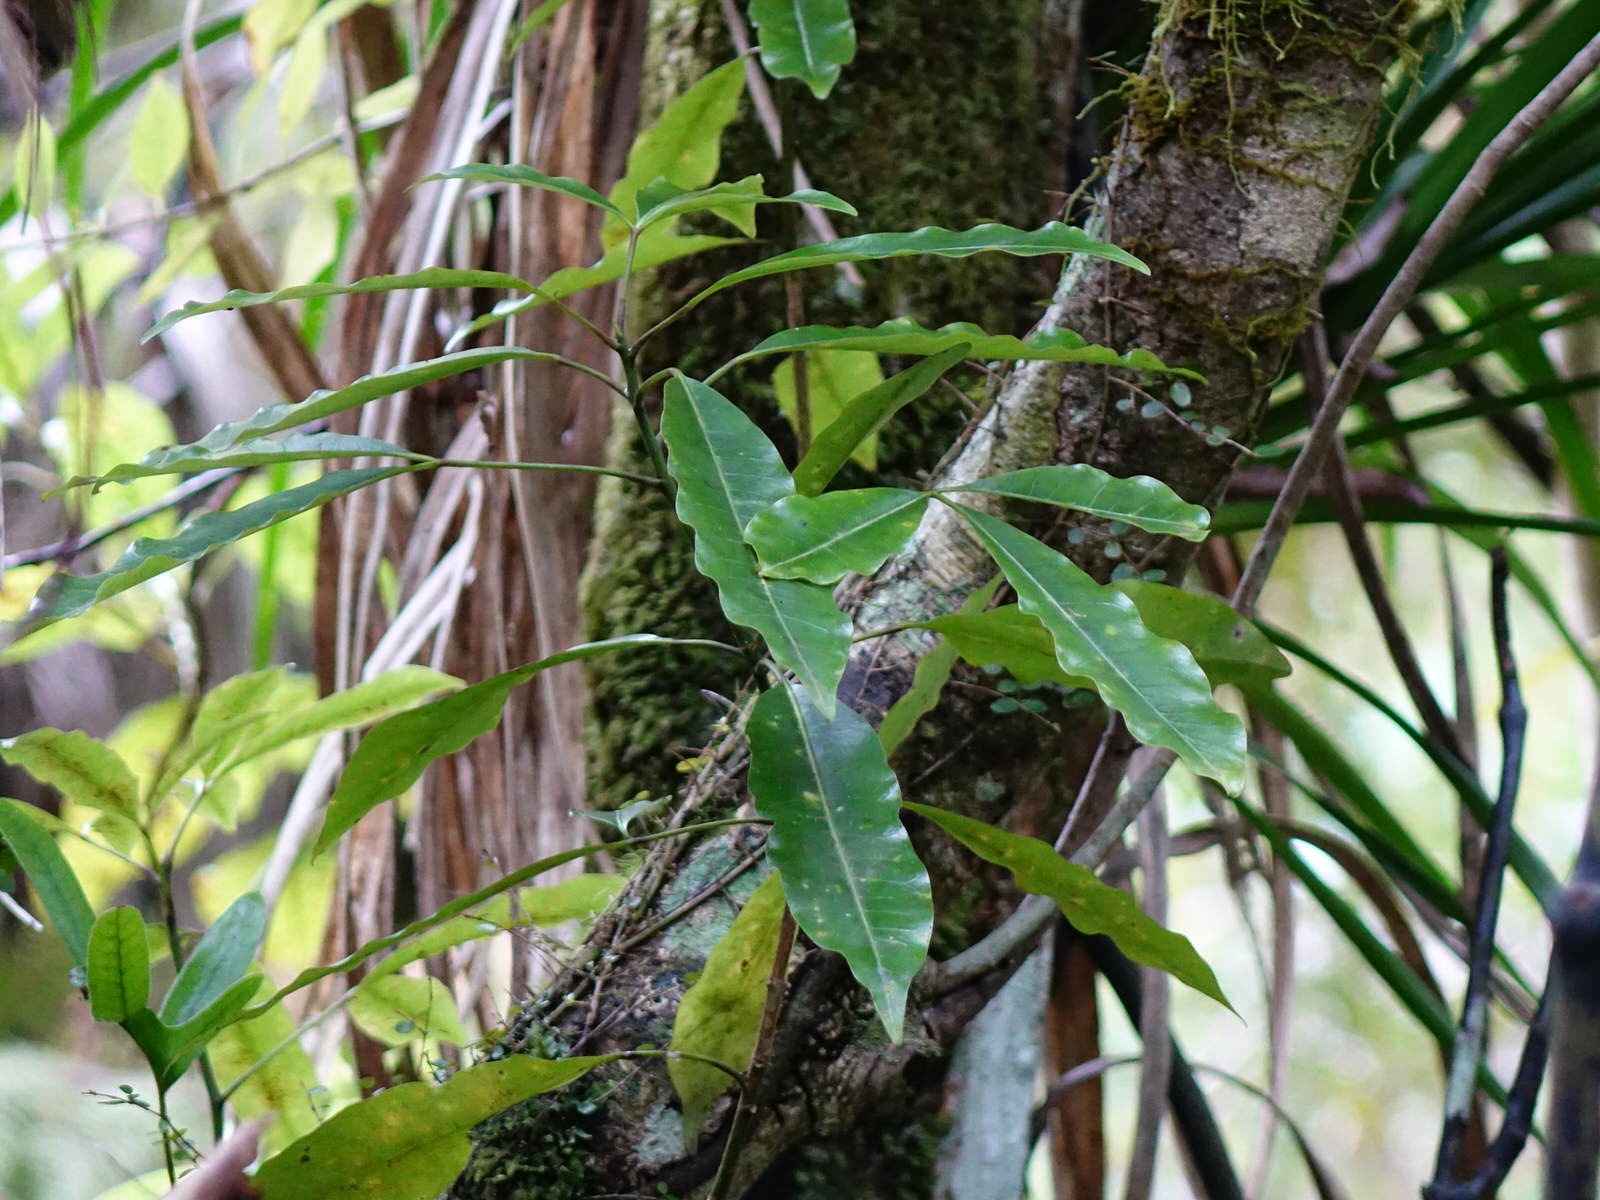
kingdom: Plantae
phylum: Tracheophyta
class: Magnoliopsida
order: Apiales
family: Araliaceae
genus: Raukaua
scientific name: Raukaua edgerleyi
